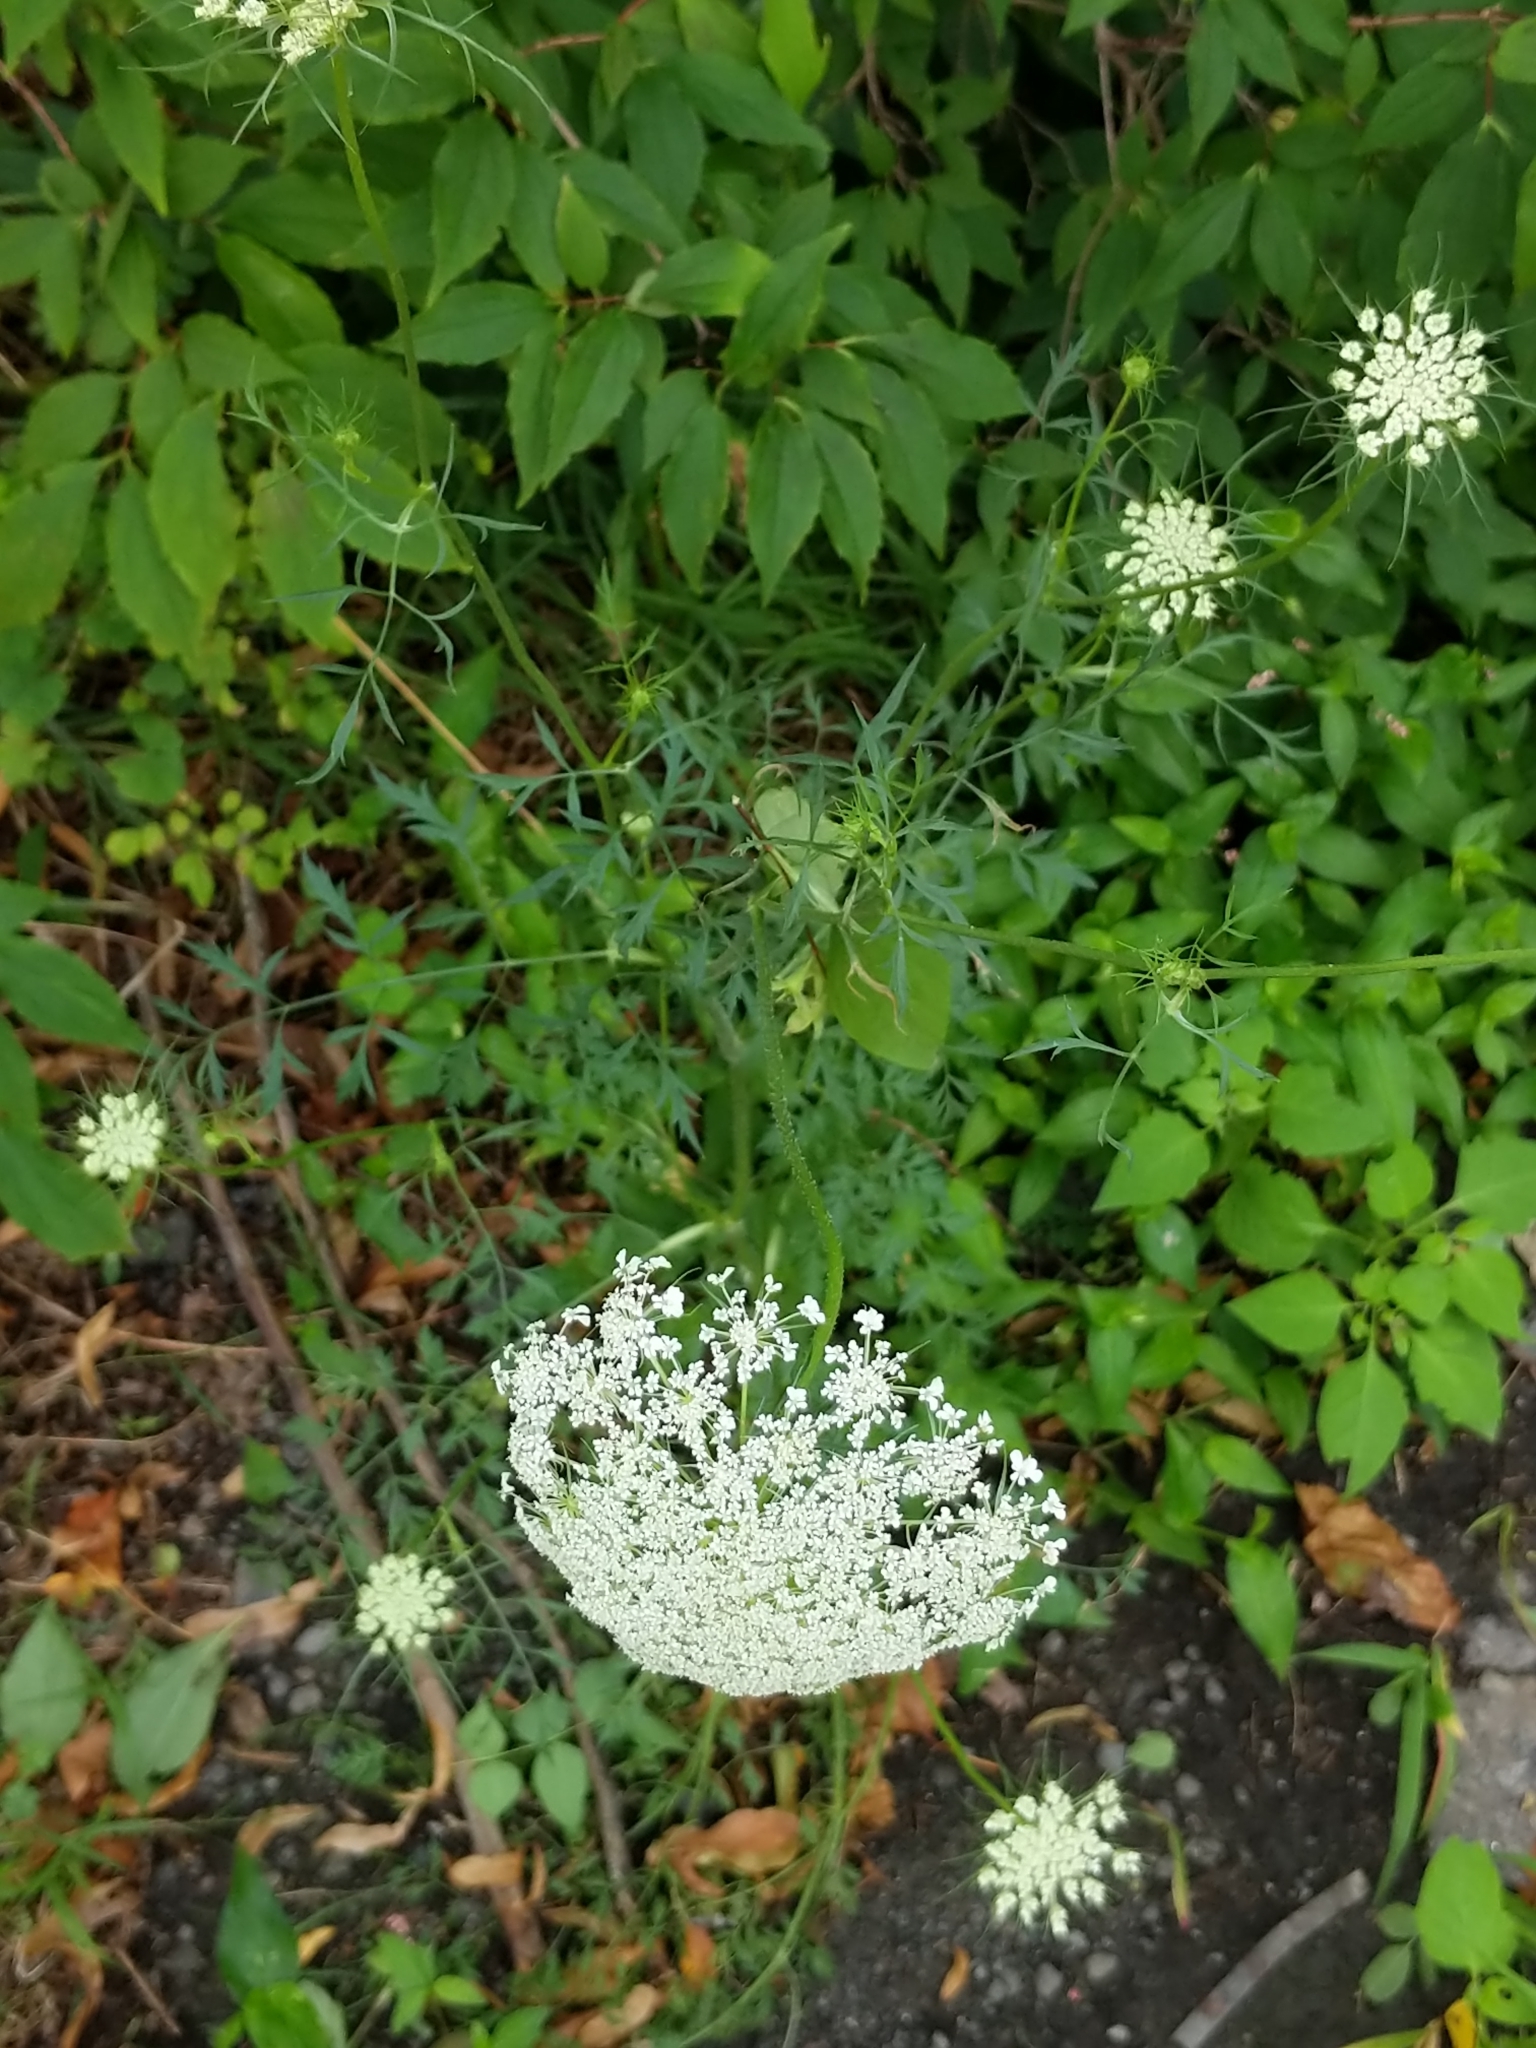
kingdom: Plantae
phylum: Tracheophyta
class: Magnoliopsida
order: Apiales
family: Apiaceae
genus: Daucus
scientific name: Daucus carota
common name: Wild carrot
